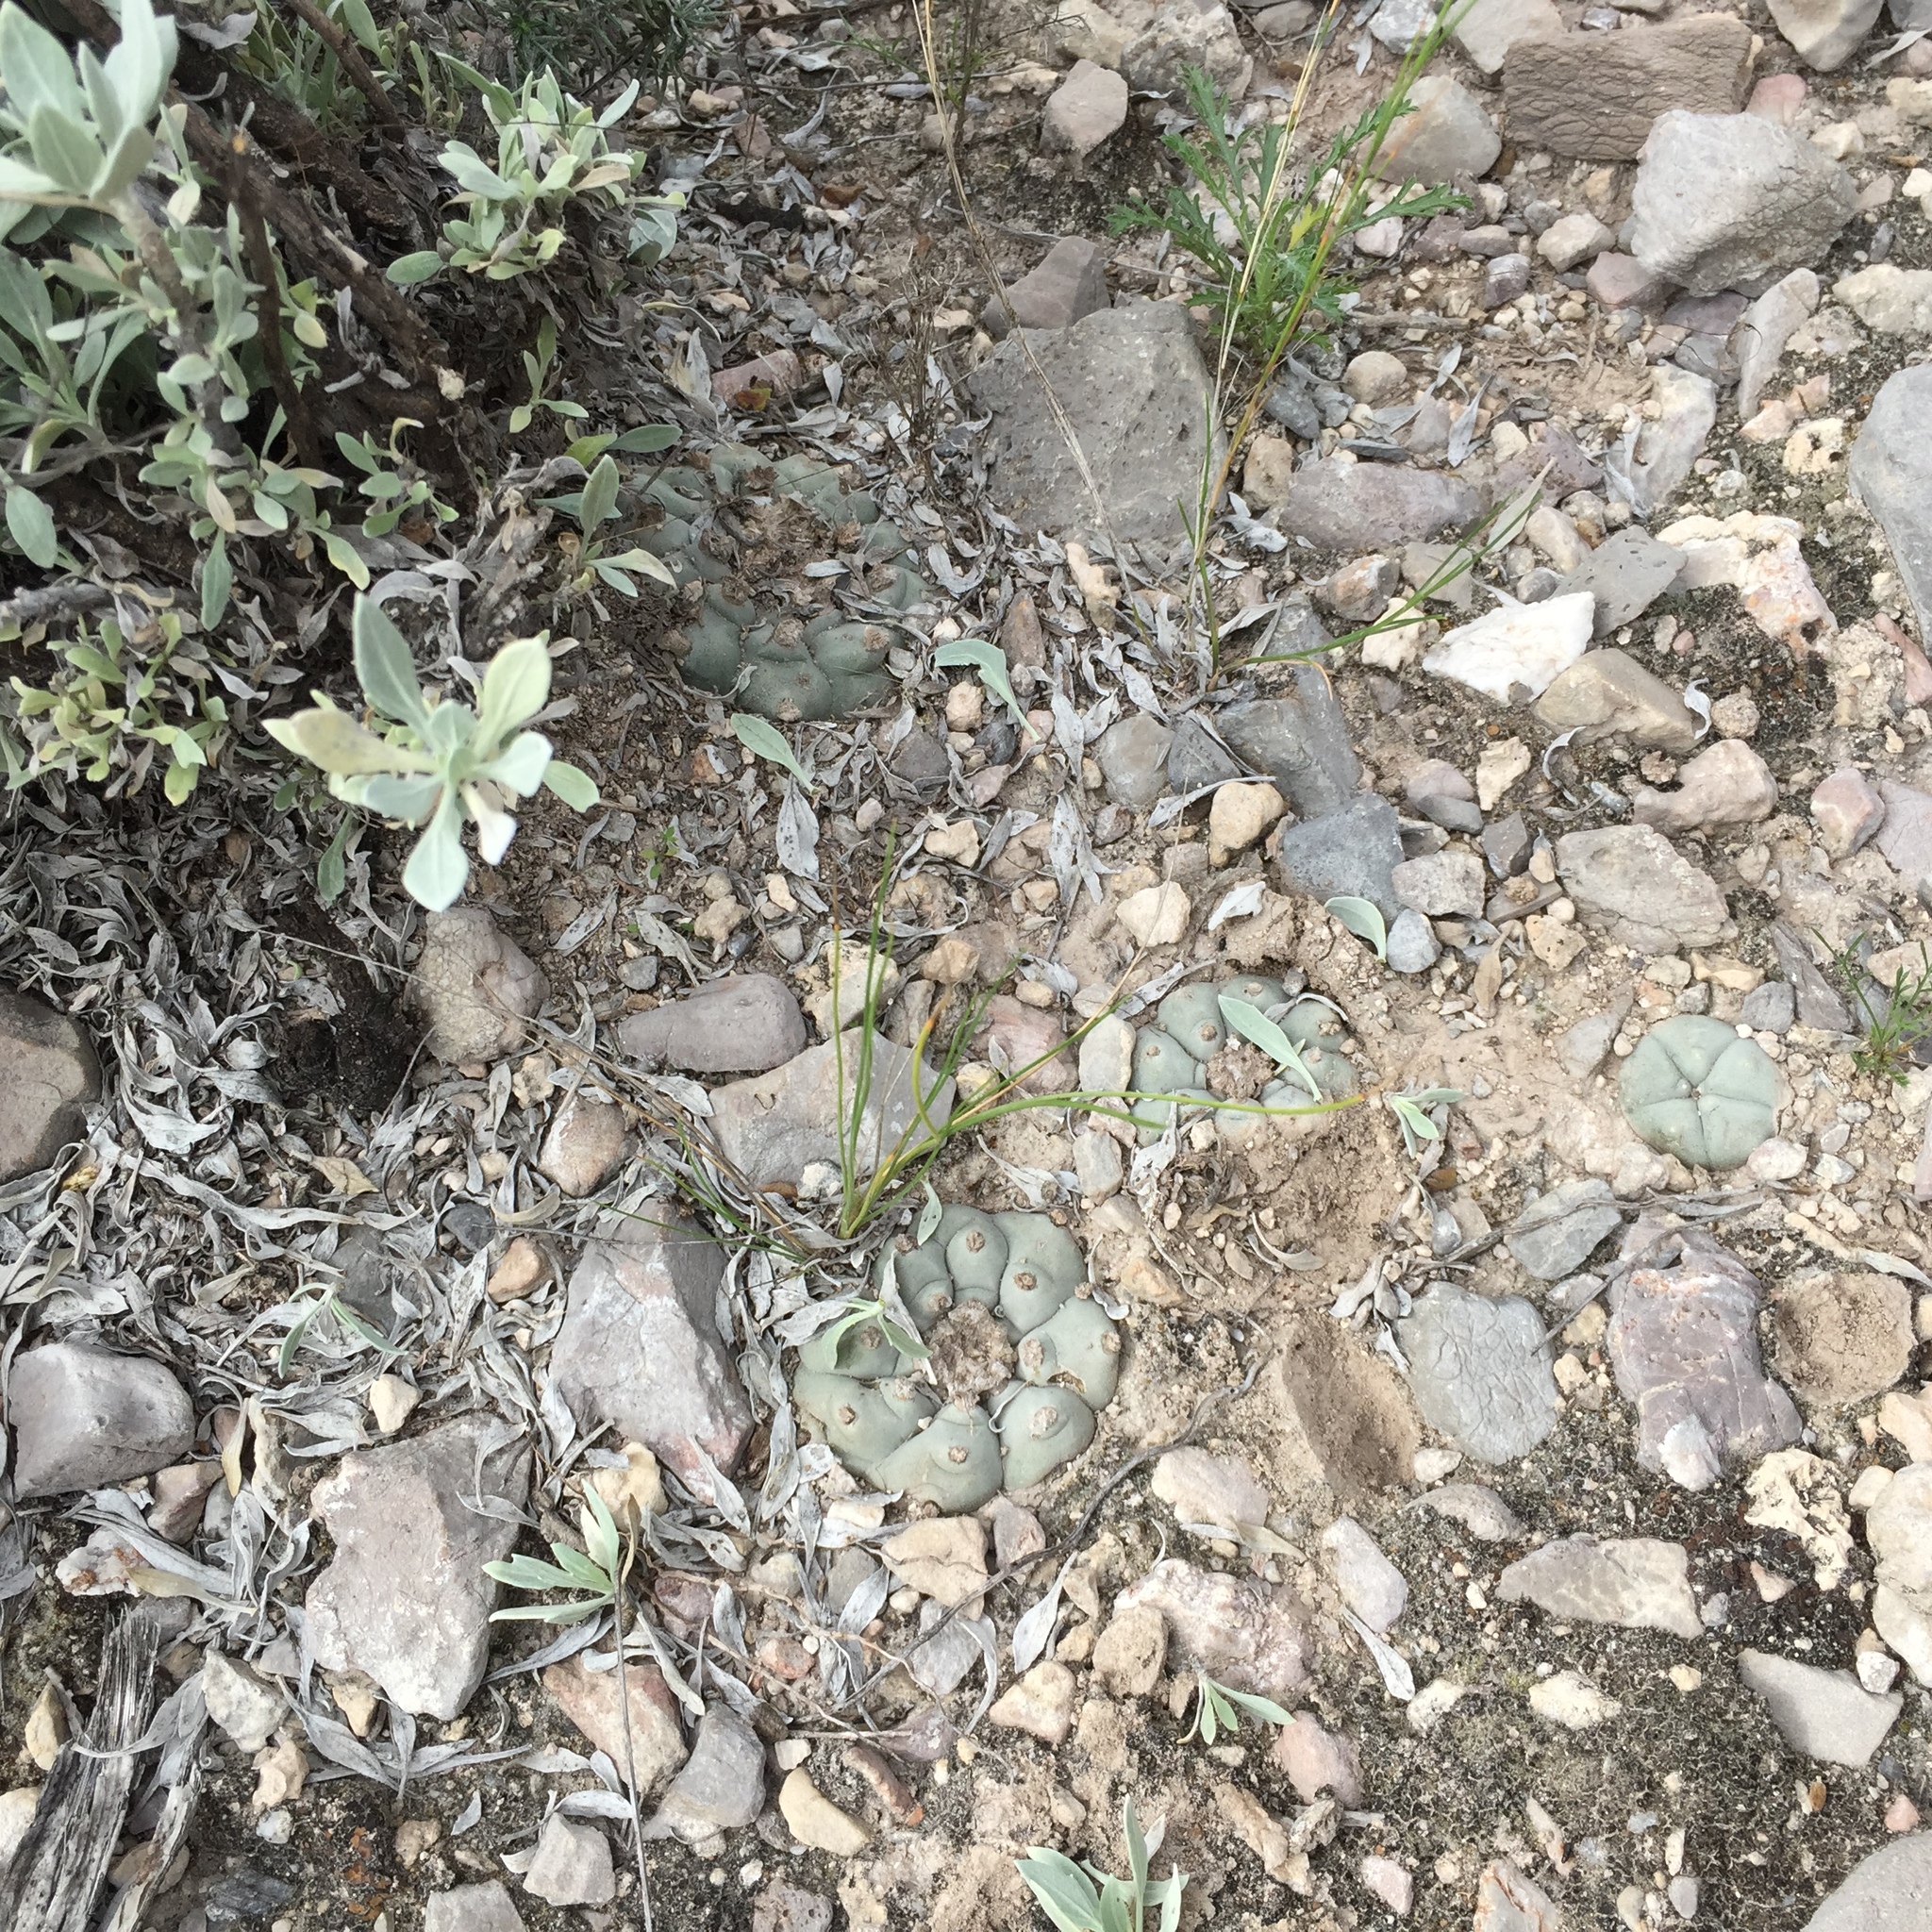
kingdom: Plantae
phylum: Tracheophyta
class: Magnoliopsida
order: Caryophyllales
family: Cactaceae
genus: Lophophora
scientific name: Lophophora williamsii
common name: Indian-dope
